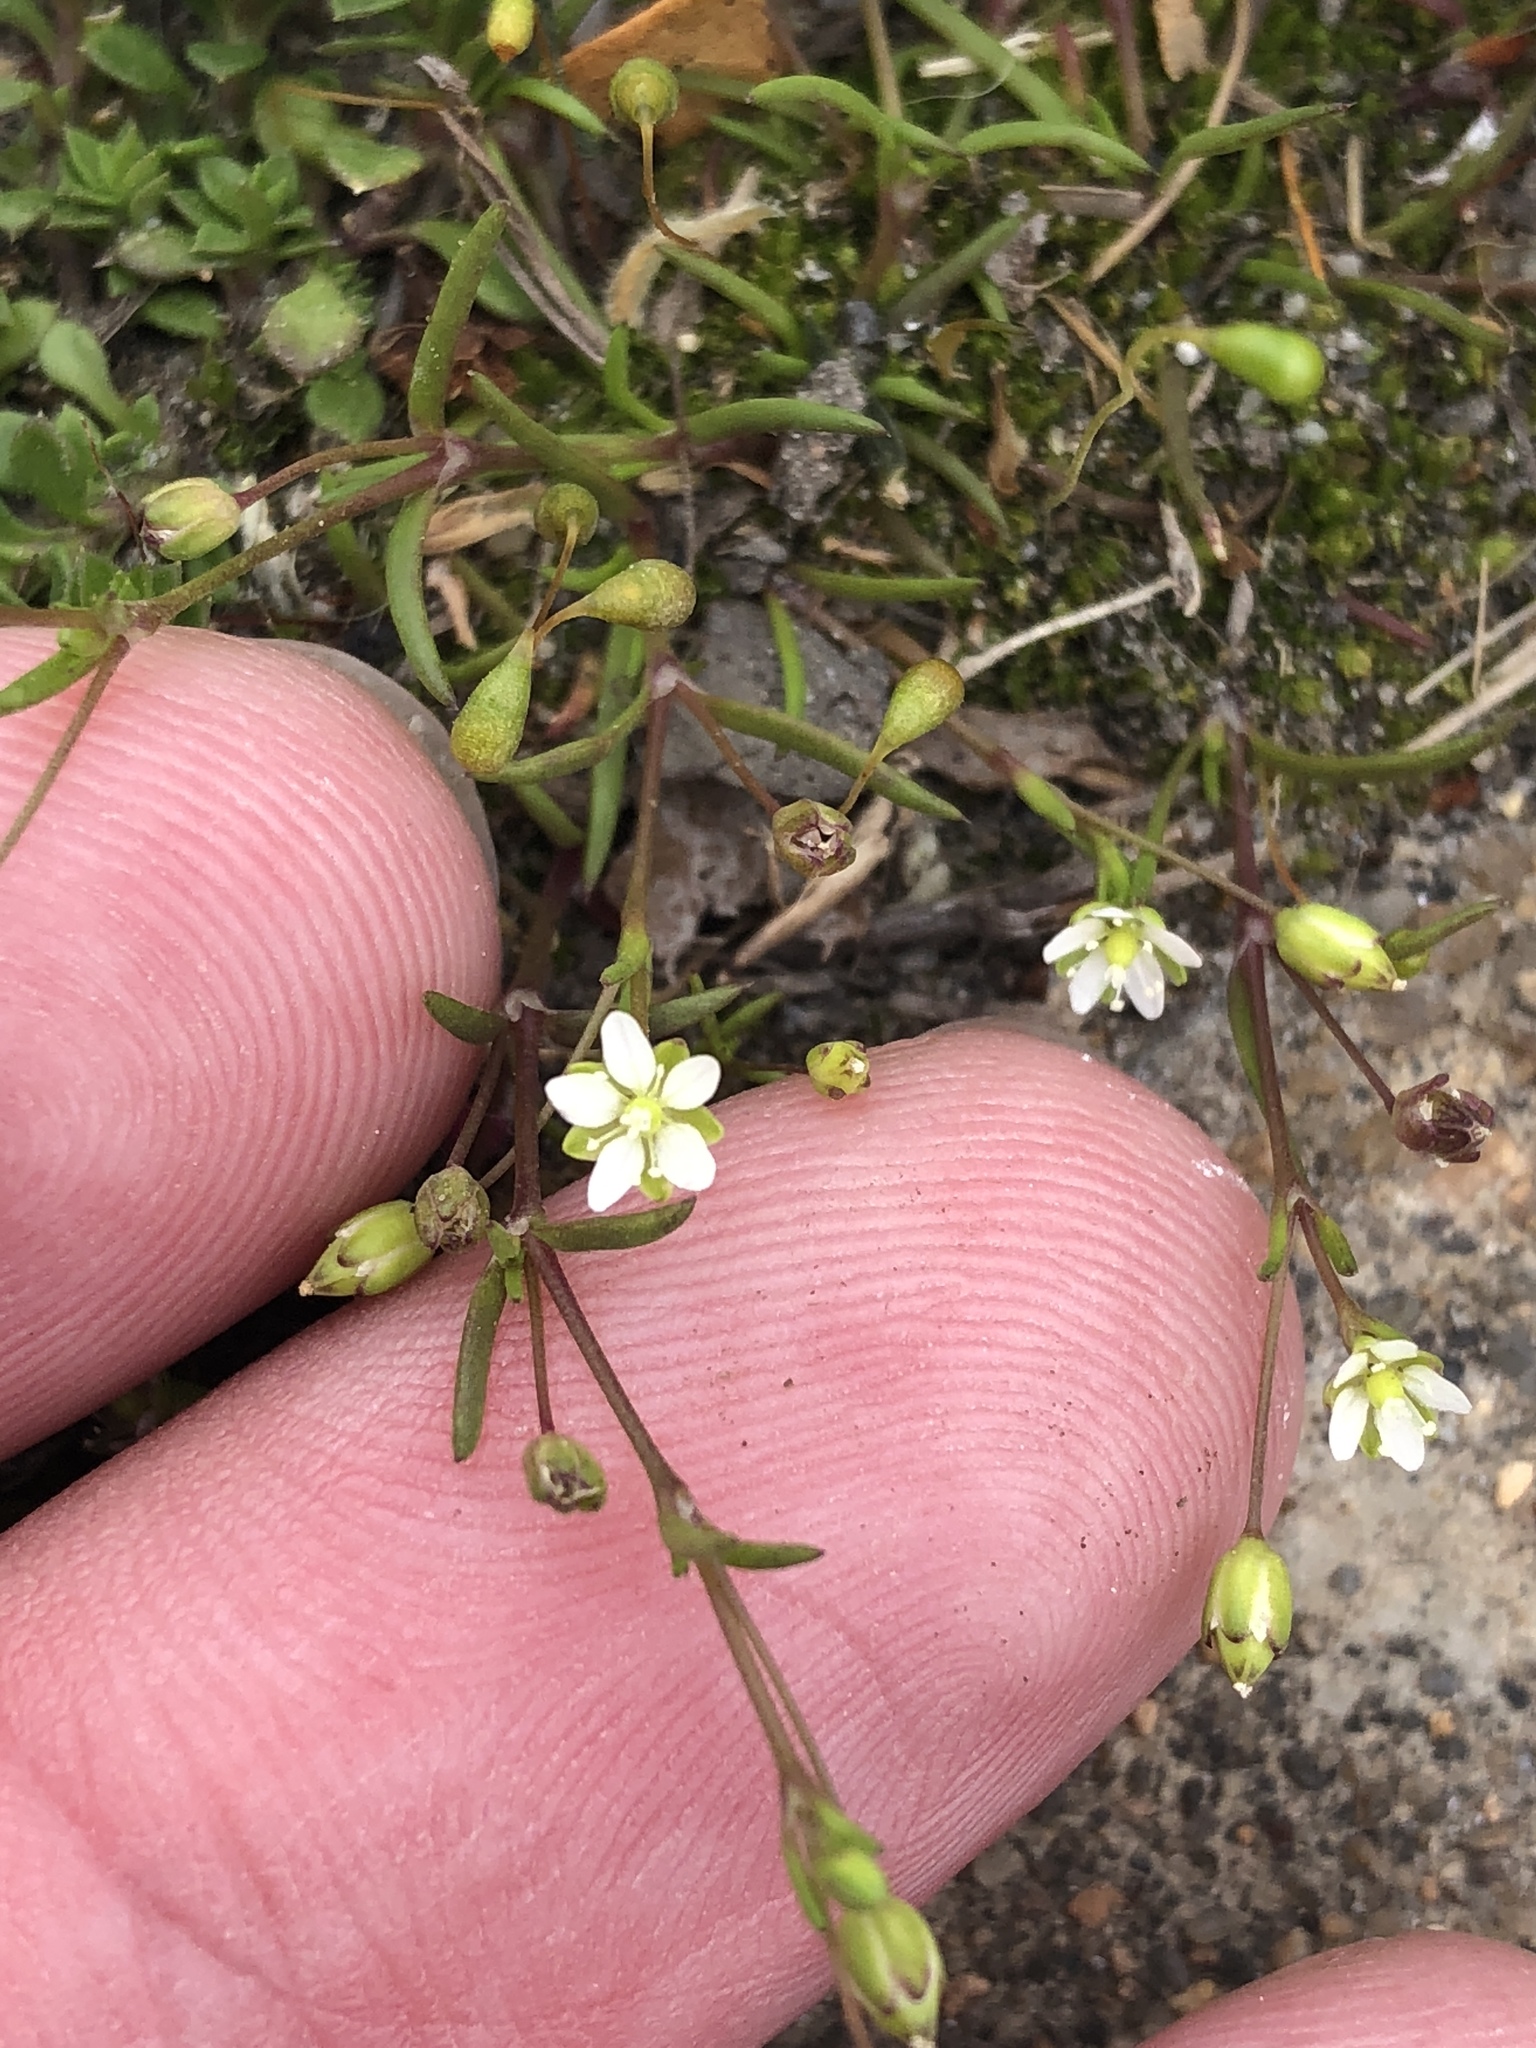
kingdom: Plantae
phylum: Tracheophyta
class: Magnoliopsida
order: Caryophyllales
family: Caryophyllaceae
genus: Sagina
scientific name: Sagina decumbens
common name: Decumbent pearlwort
